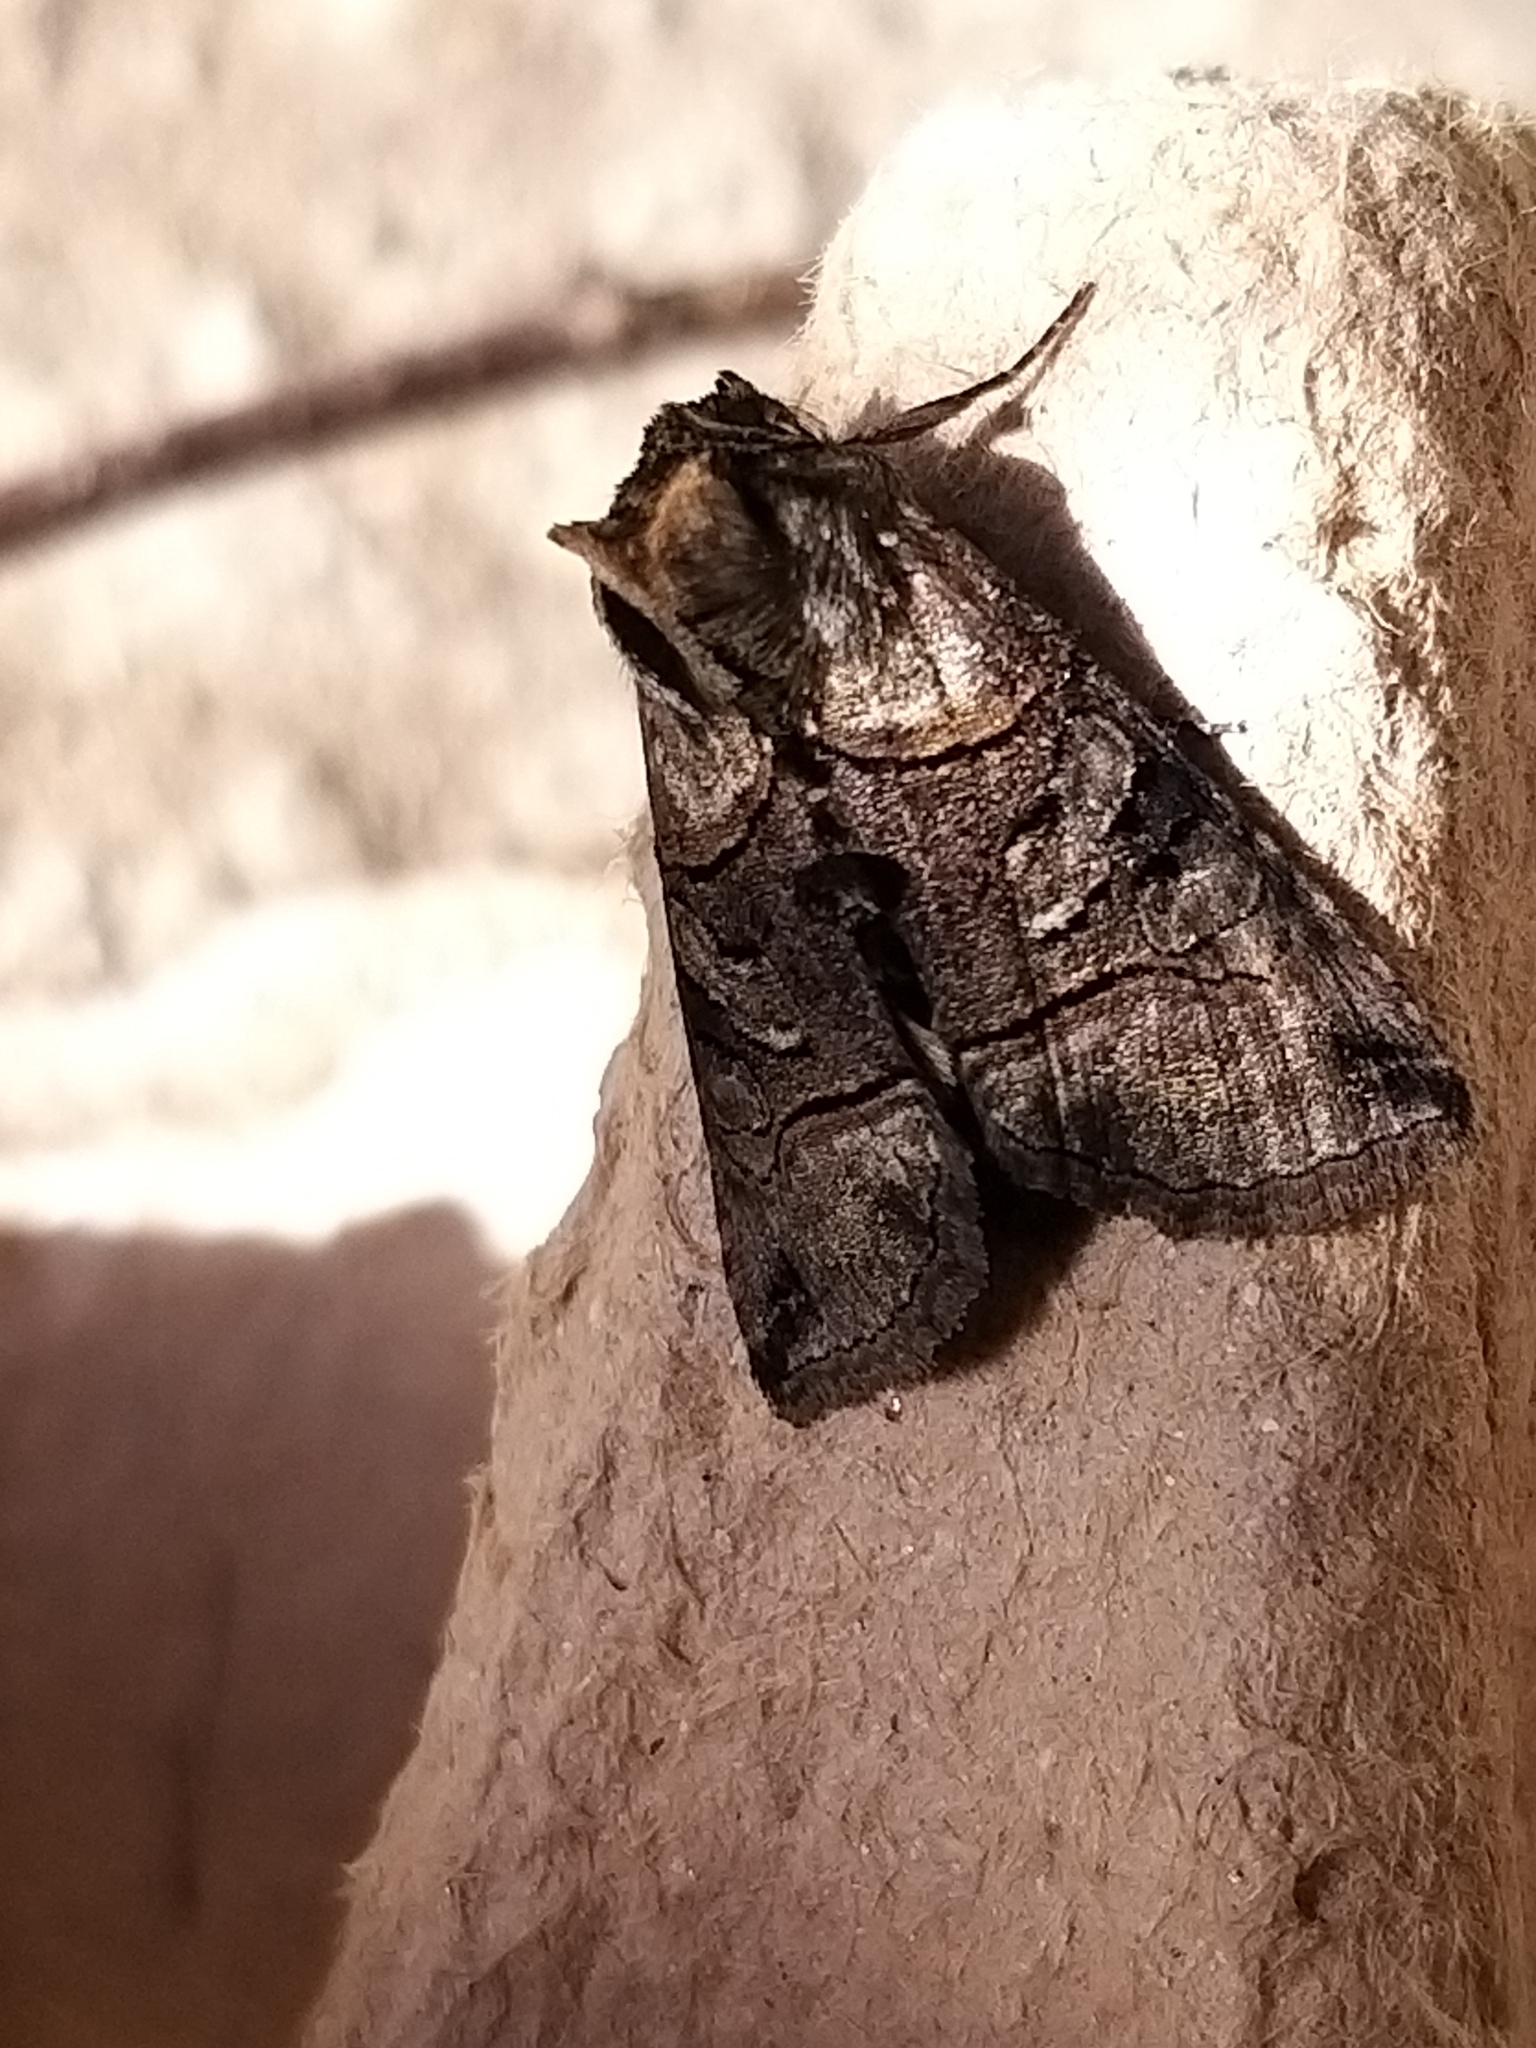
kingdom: Animalia
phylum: Arthropoda
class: Insecta
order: Lepidoptera
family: Noctuidae
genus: Abrostola
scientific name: Abrostola tripartita
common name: Spectacle
